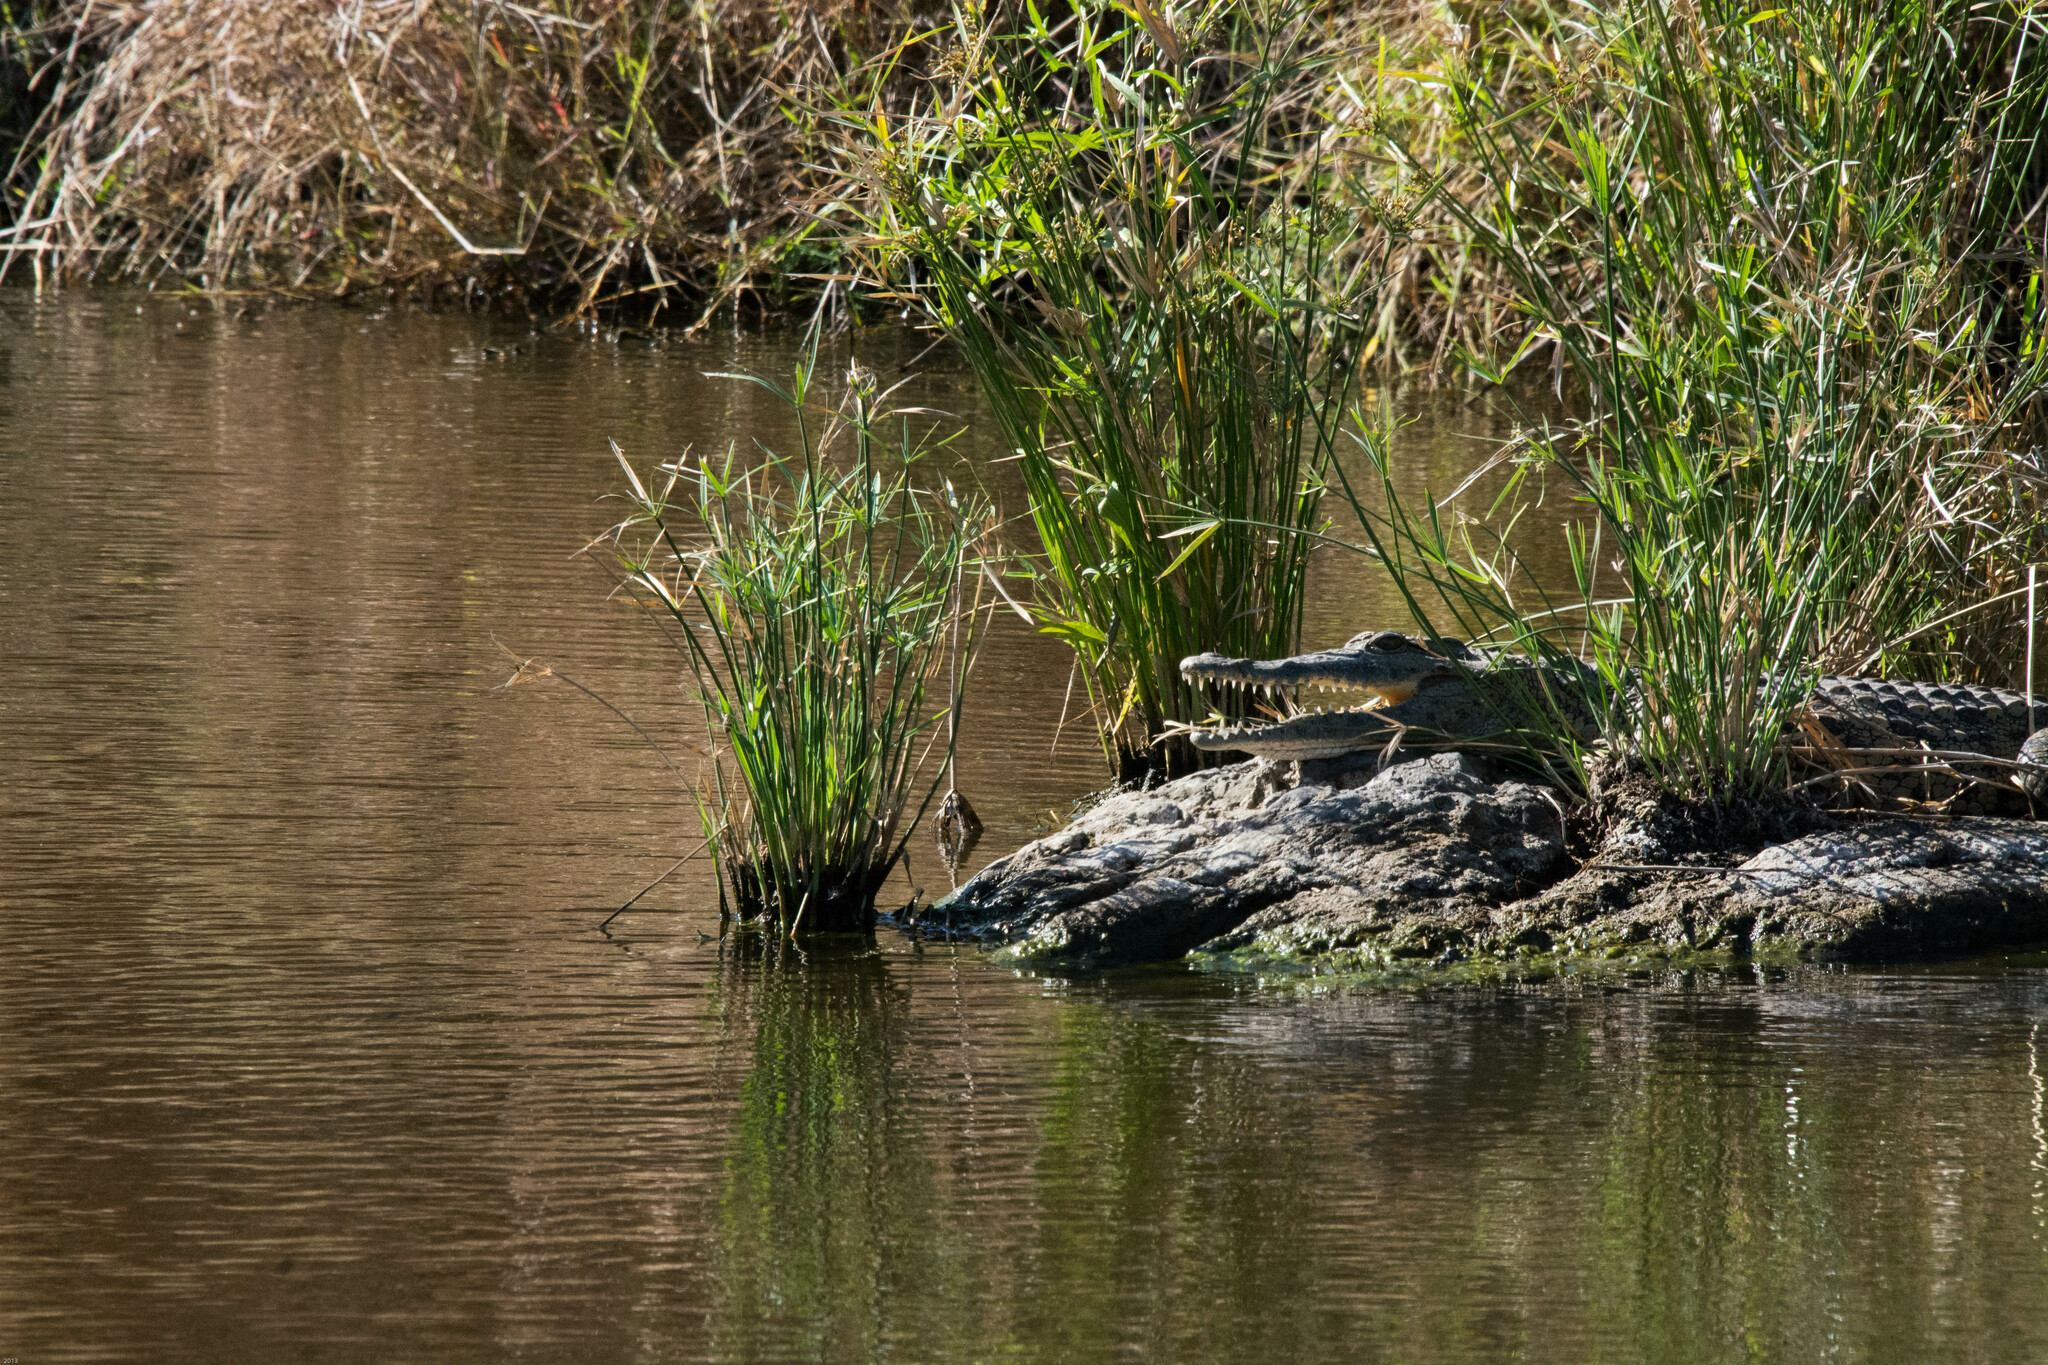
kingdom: Animalia
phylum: Chordata
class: Crocodylia
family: Crocodylidae
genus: Crocodylus
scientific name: Crocodylus niloticus
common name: Nile crocodile
